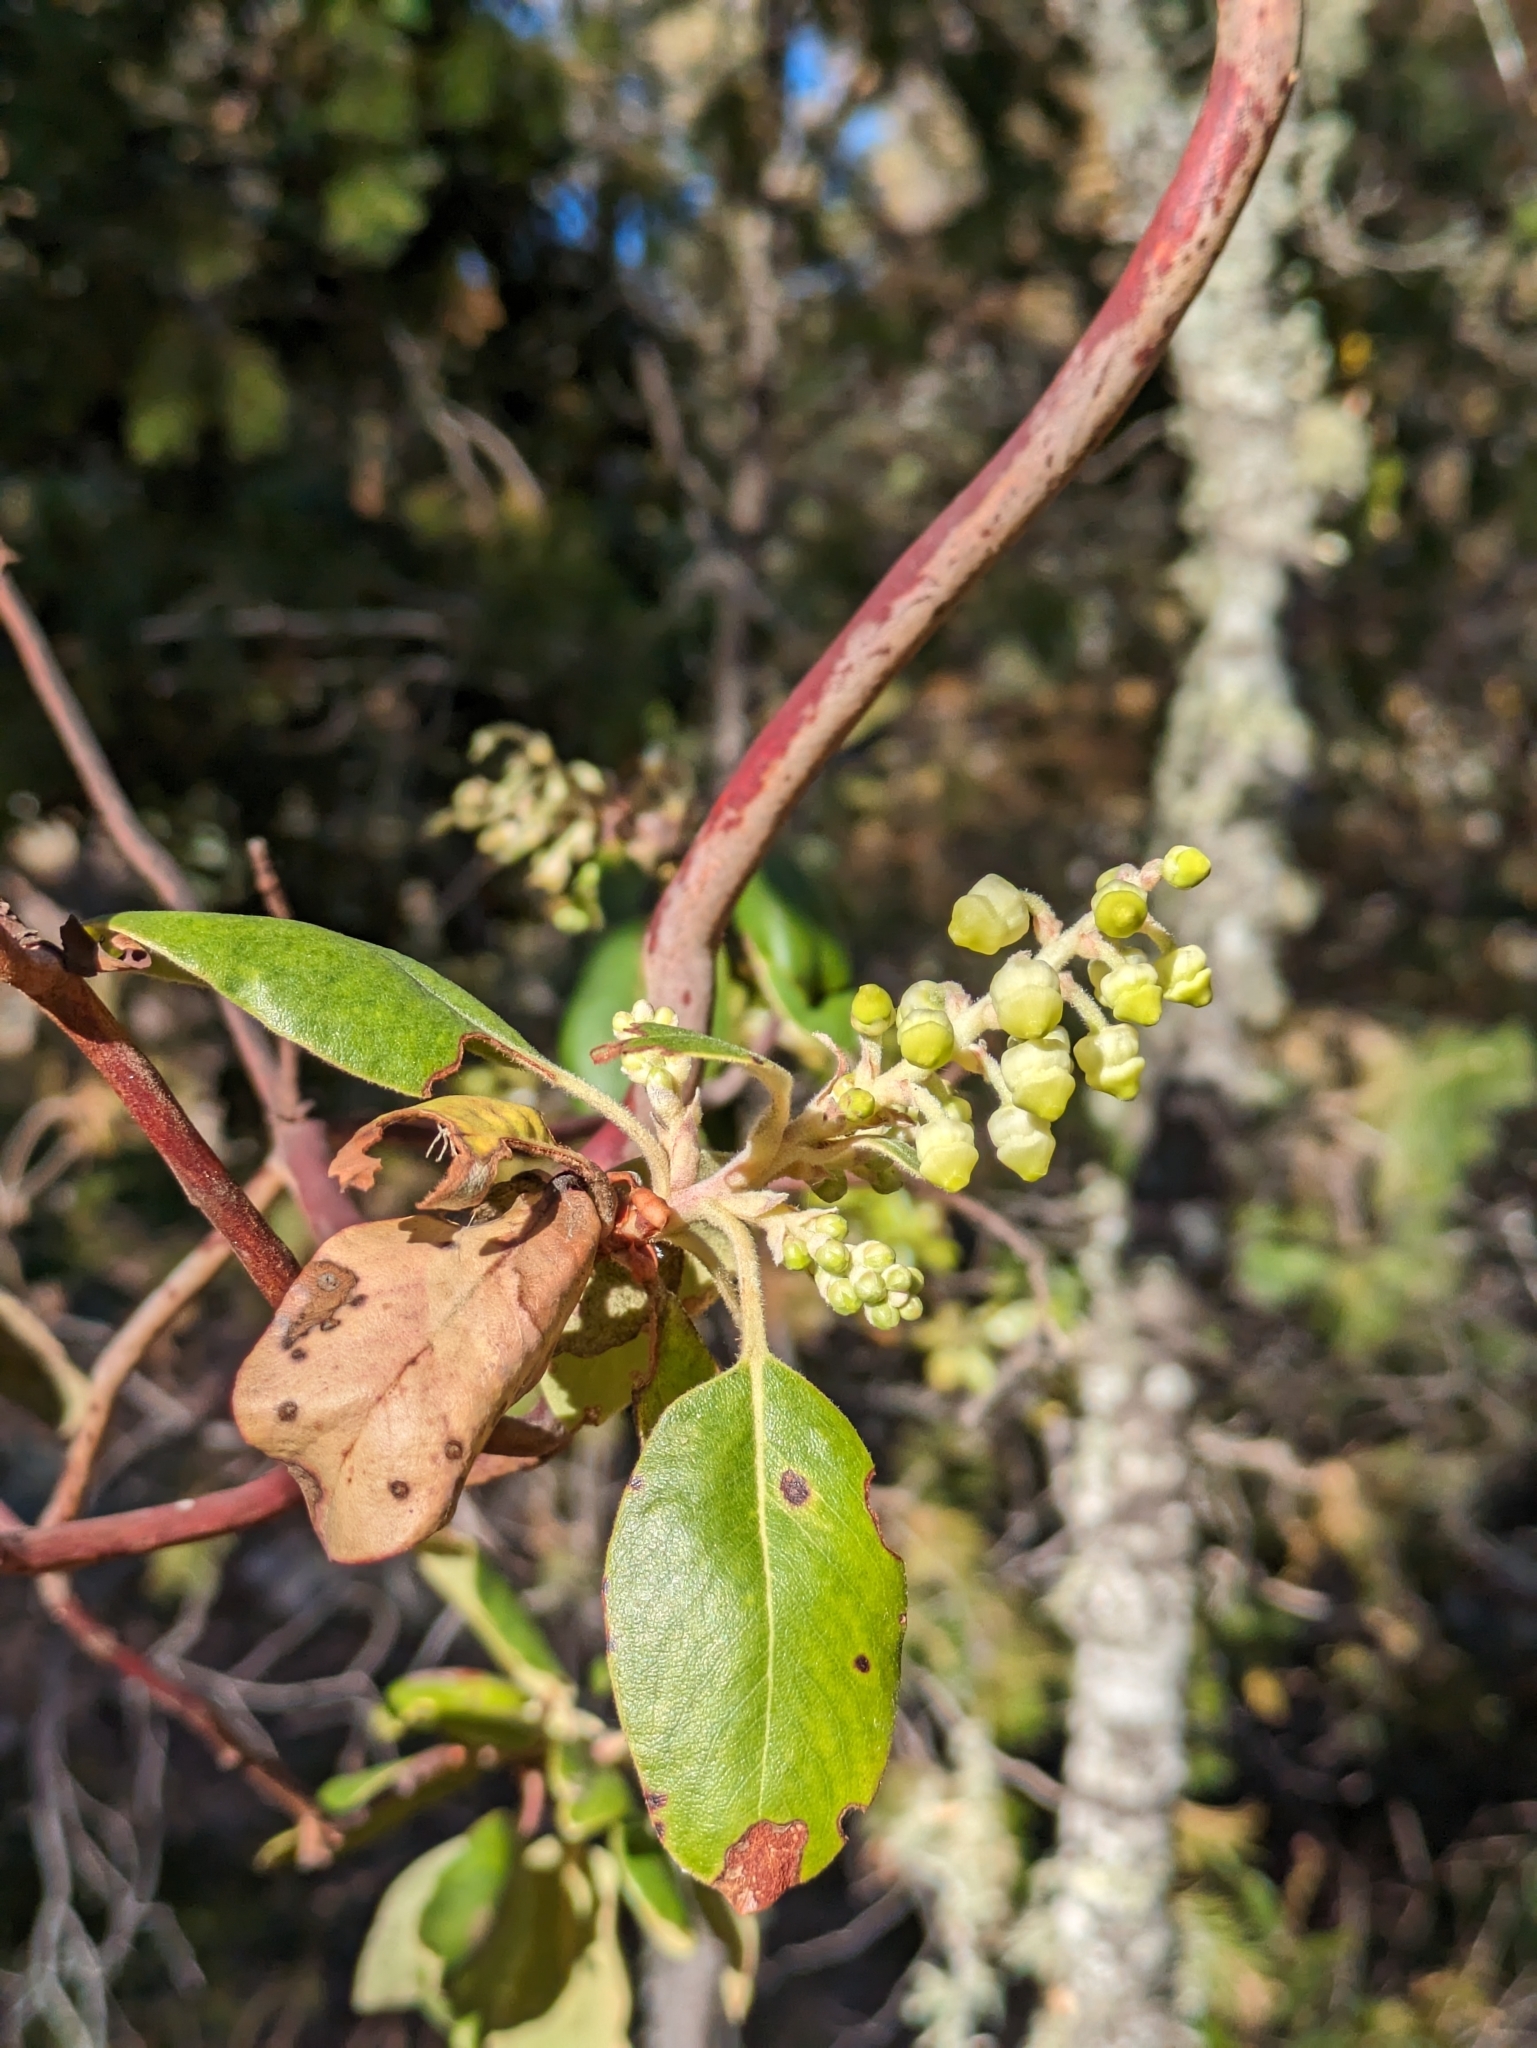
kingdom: Plantae
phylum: Tracheophyta
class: Magnoliopsida
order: Ericales
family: Ericaceae
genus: Arbutus
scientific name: Arbutus xalapensis
